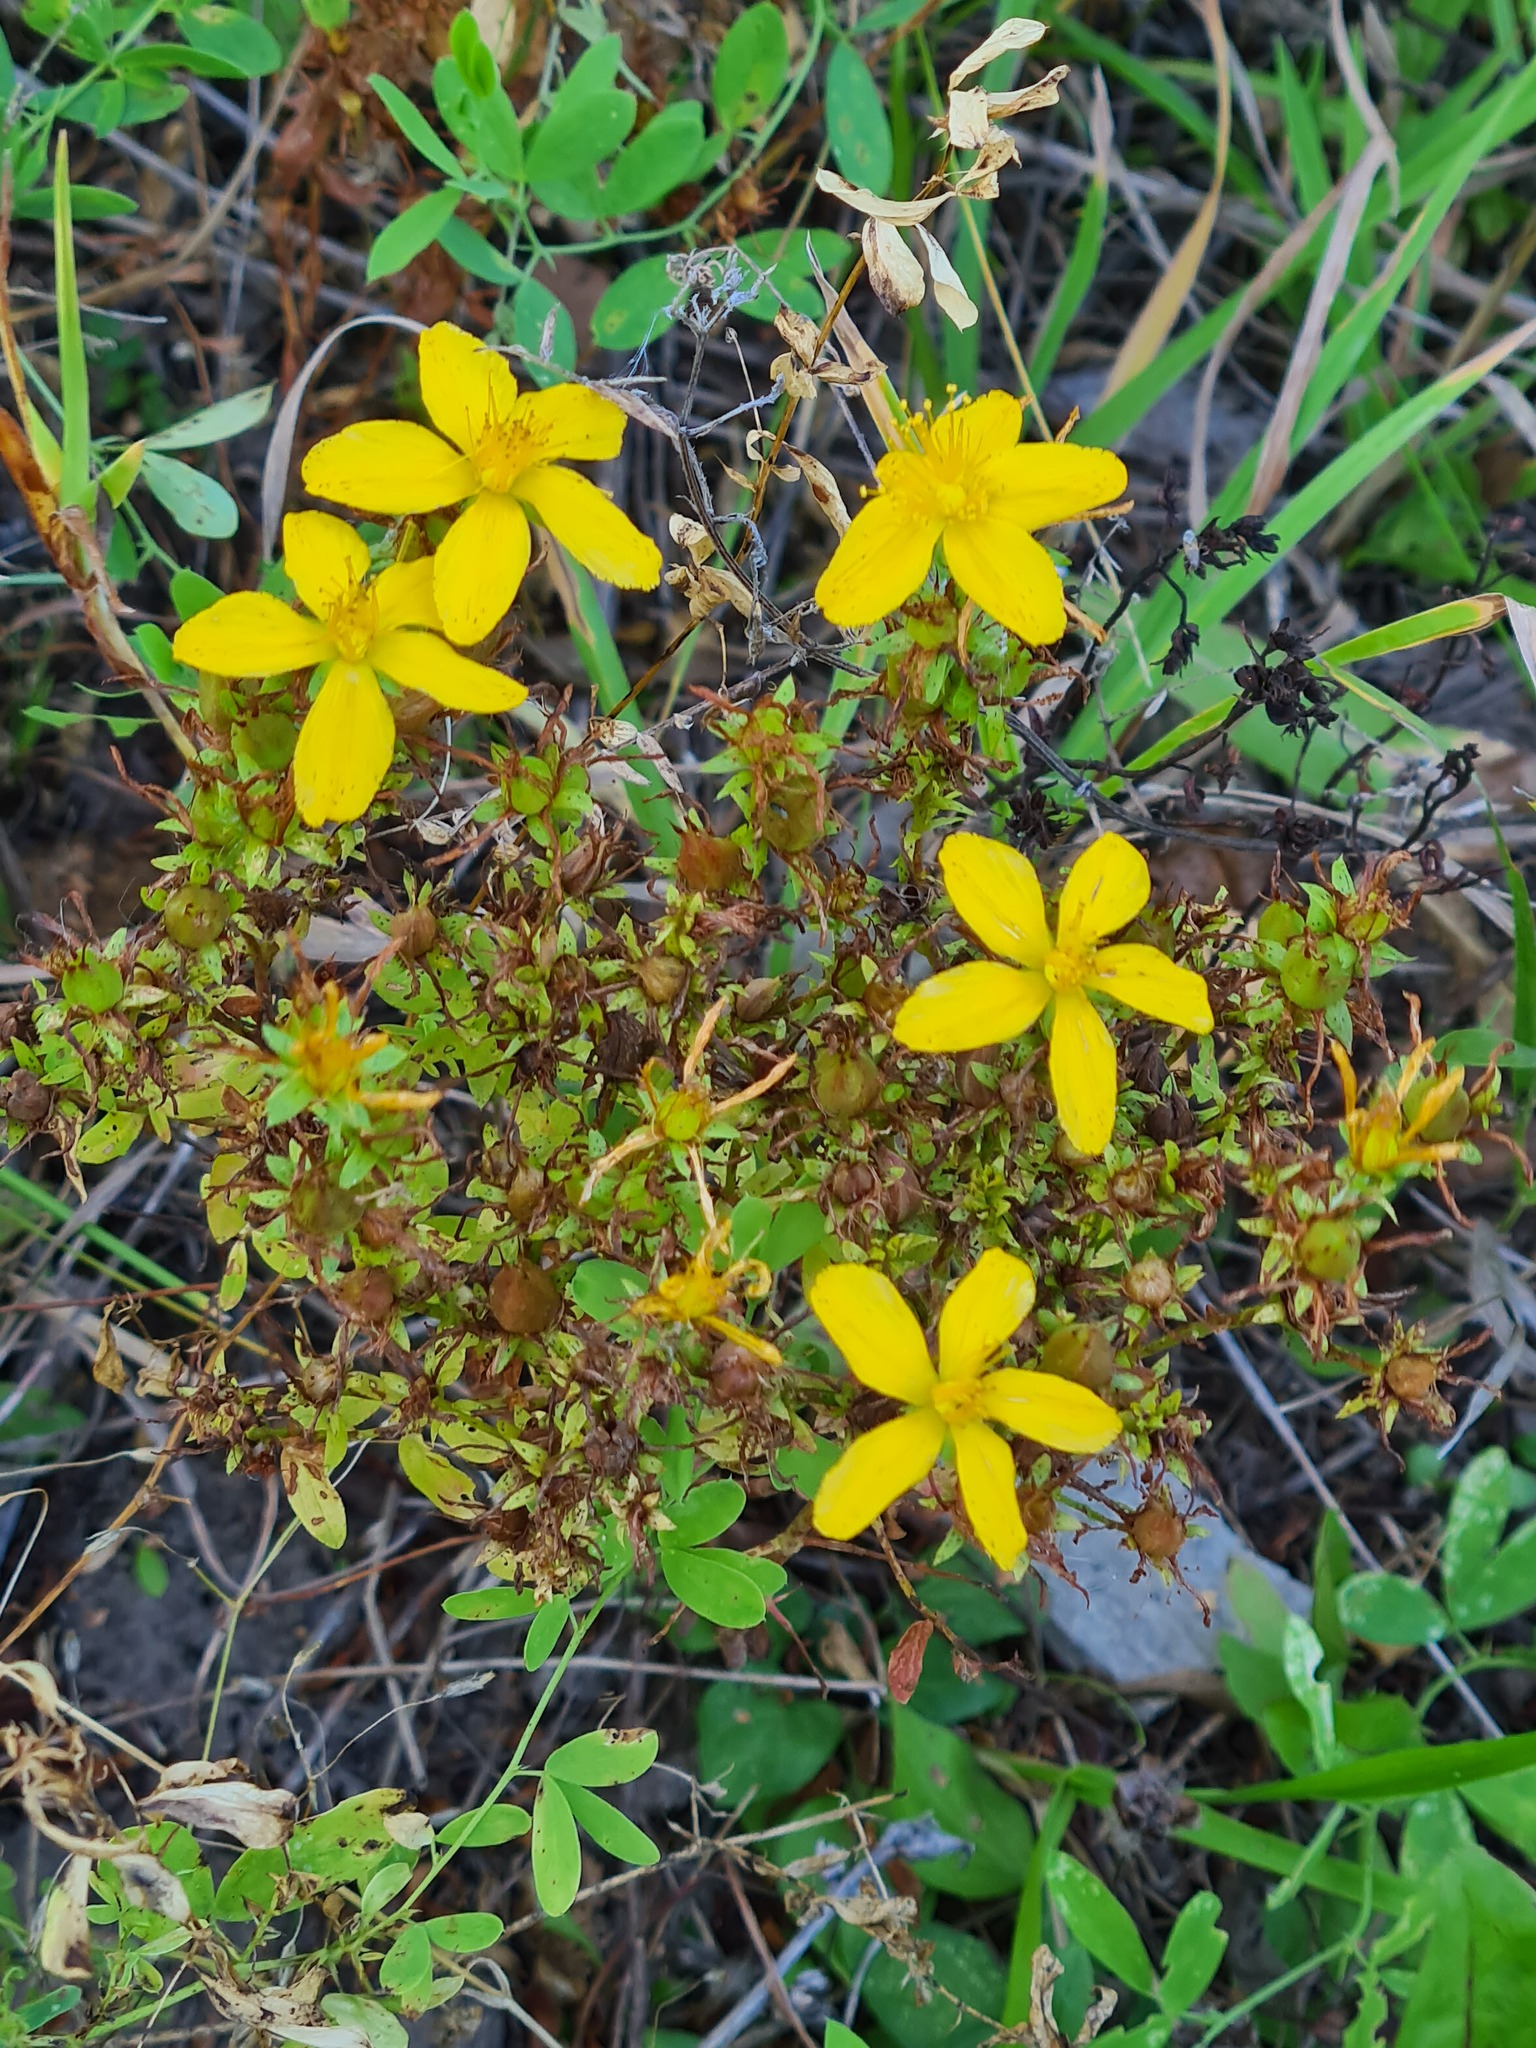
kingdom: Plantae
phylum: Tracheophyta
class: Magnoliopsida
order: Malpighiales
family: Hypericaceae
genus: Hypericum
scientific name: Hypericum perforatum
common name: Common st. johnswort
